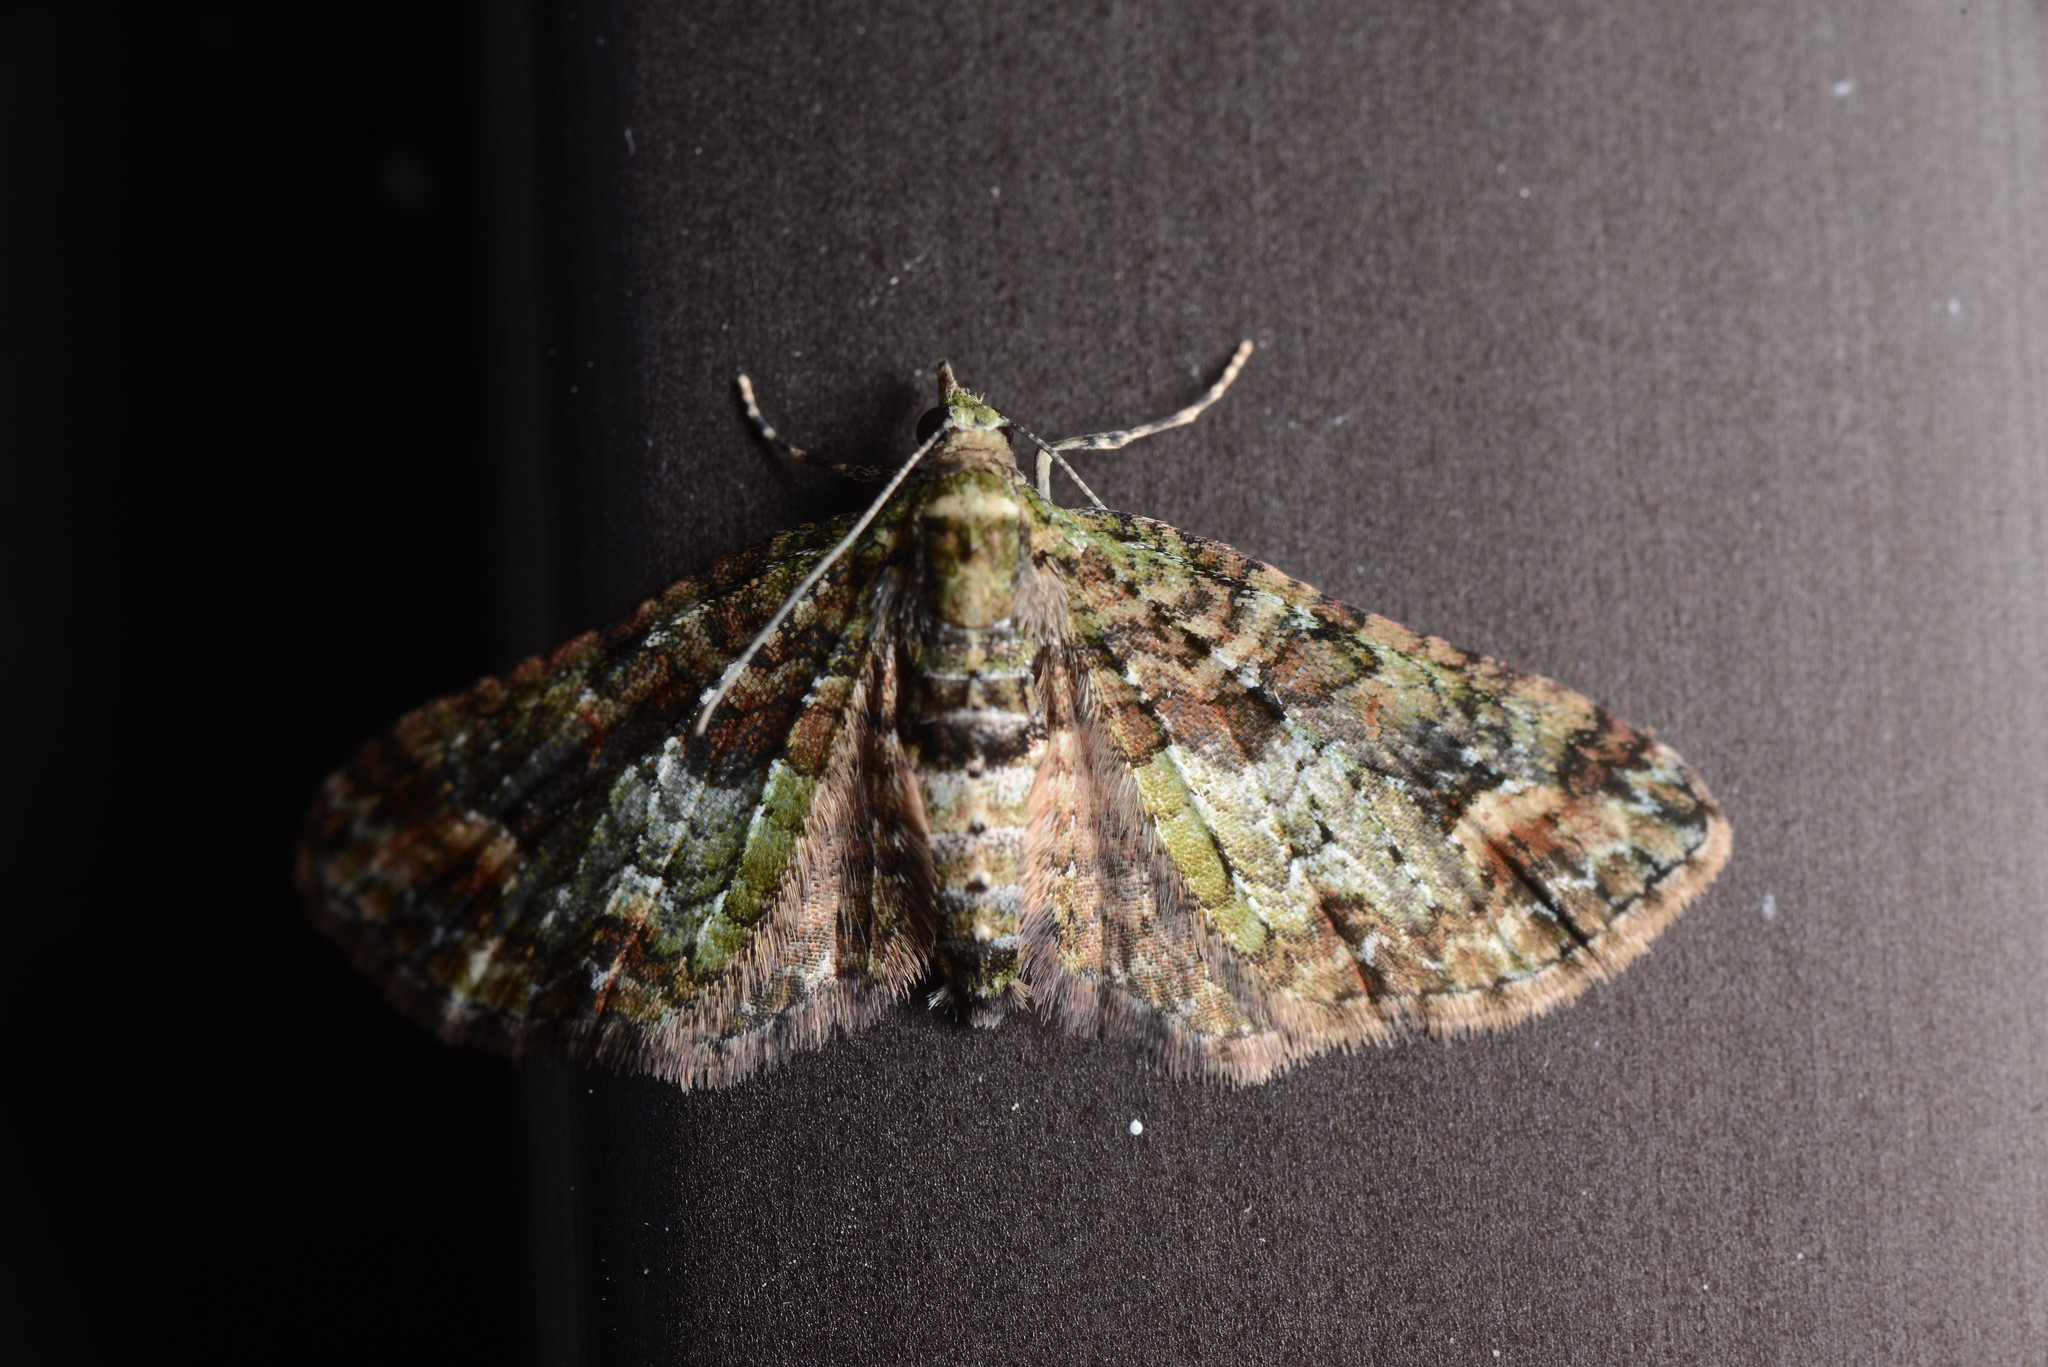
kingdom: Animalia
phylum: Arthropoda
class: Insecta
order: Lepidoptera
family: Geometridae
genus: Idaea
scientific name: Idaea mutanda
